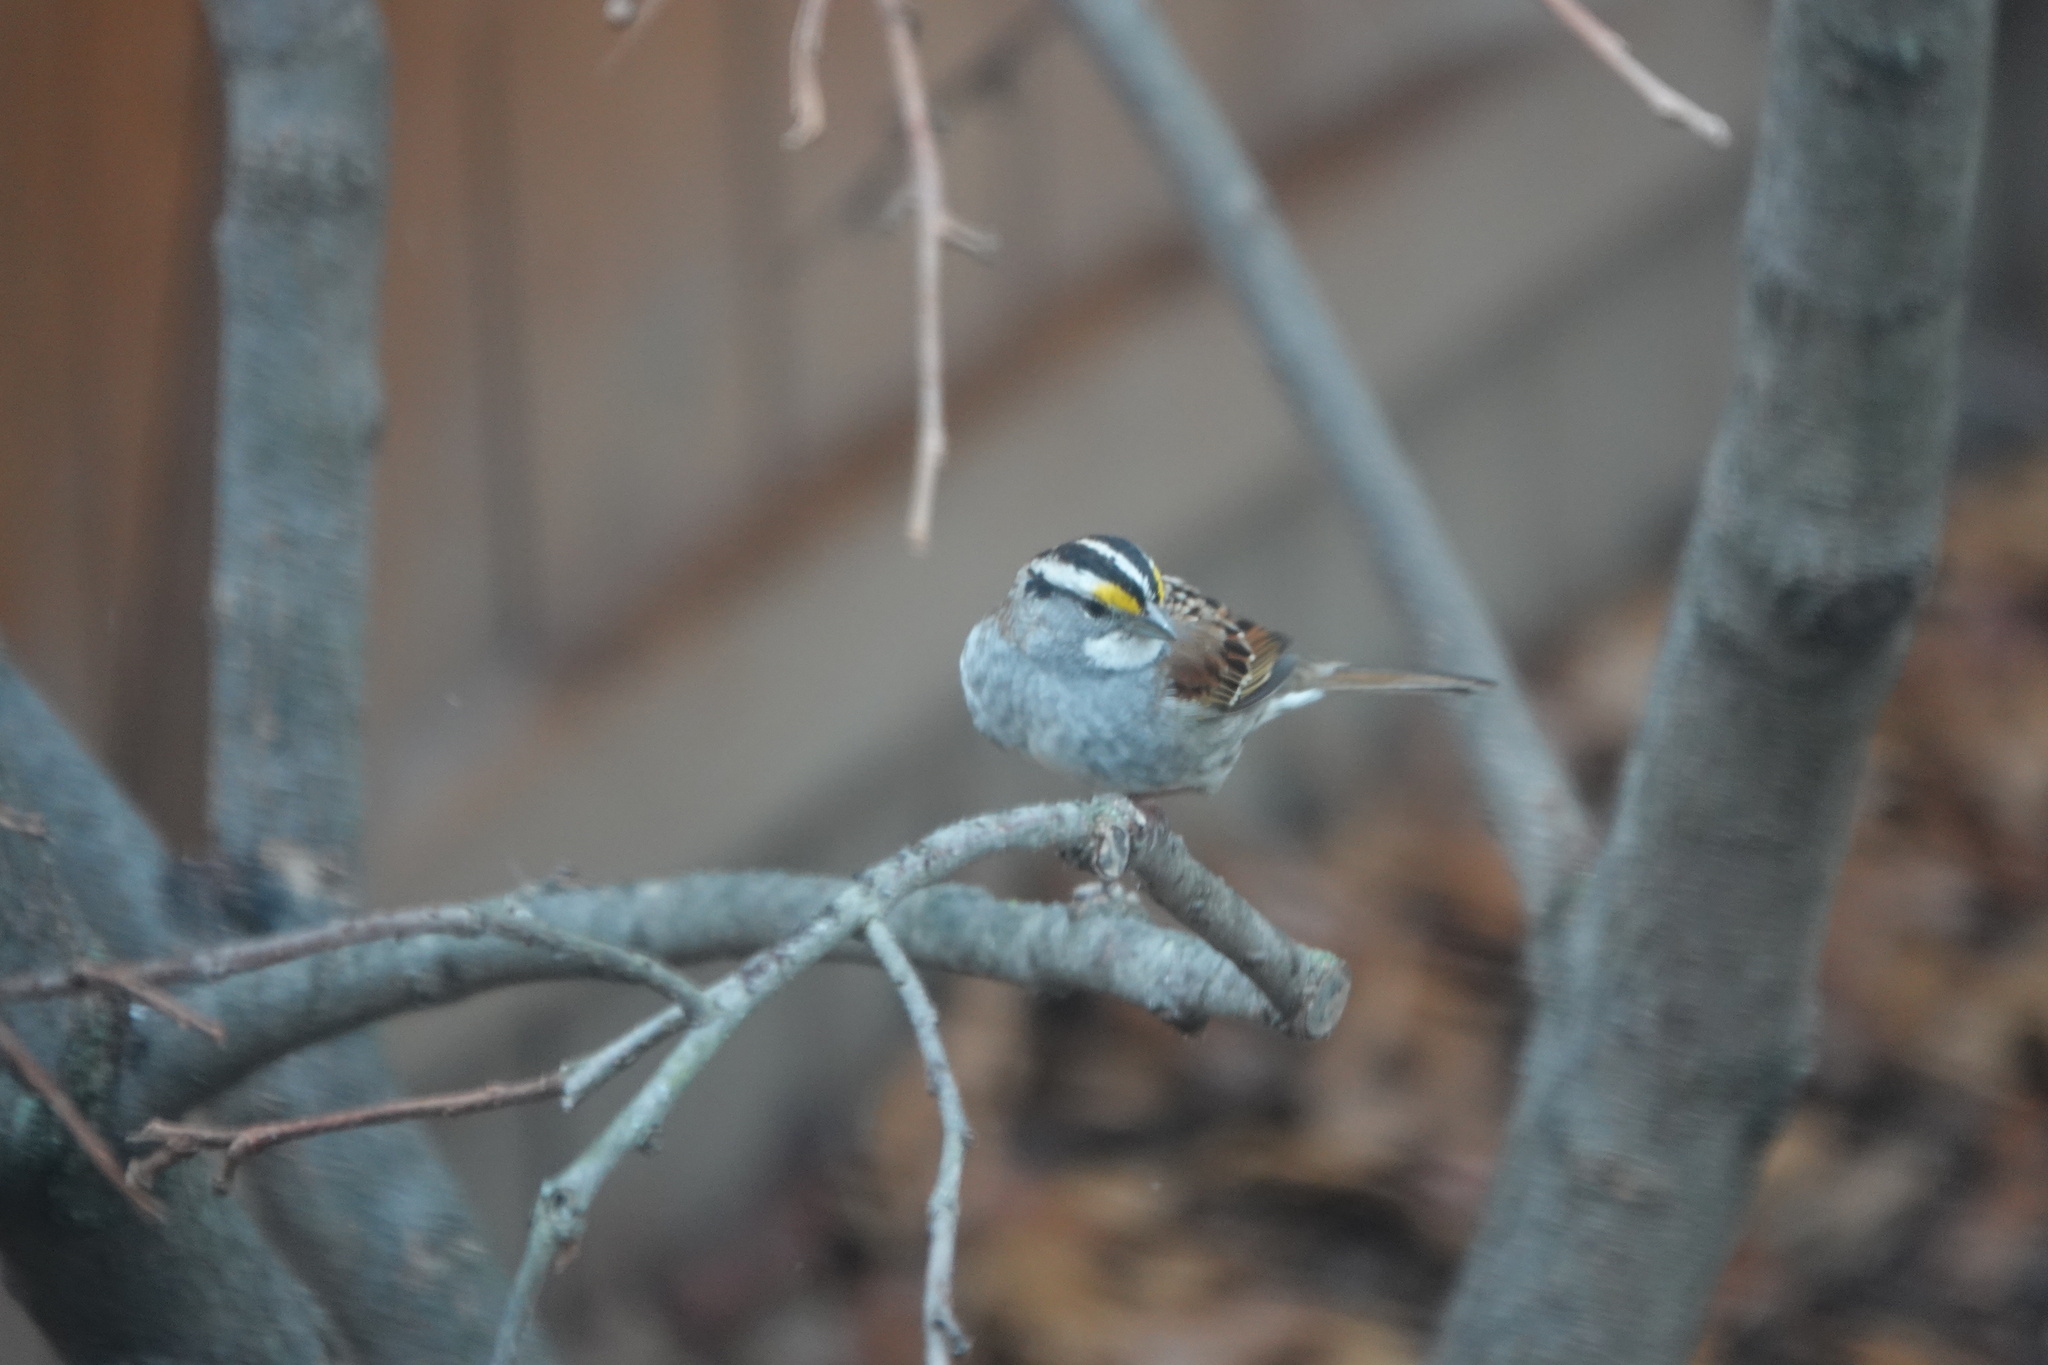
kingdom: Animalia
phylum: Chordata
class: Aves
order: Passeriformes
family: Passerellidae
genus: Zonotrichia
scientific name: Zonotrichia albicollis
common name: White-throated sparrow
